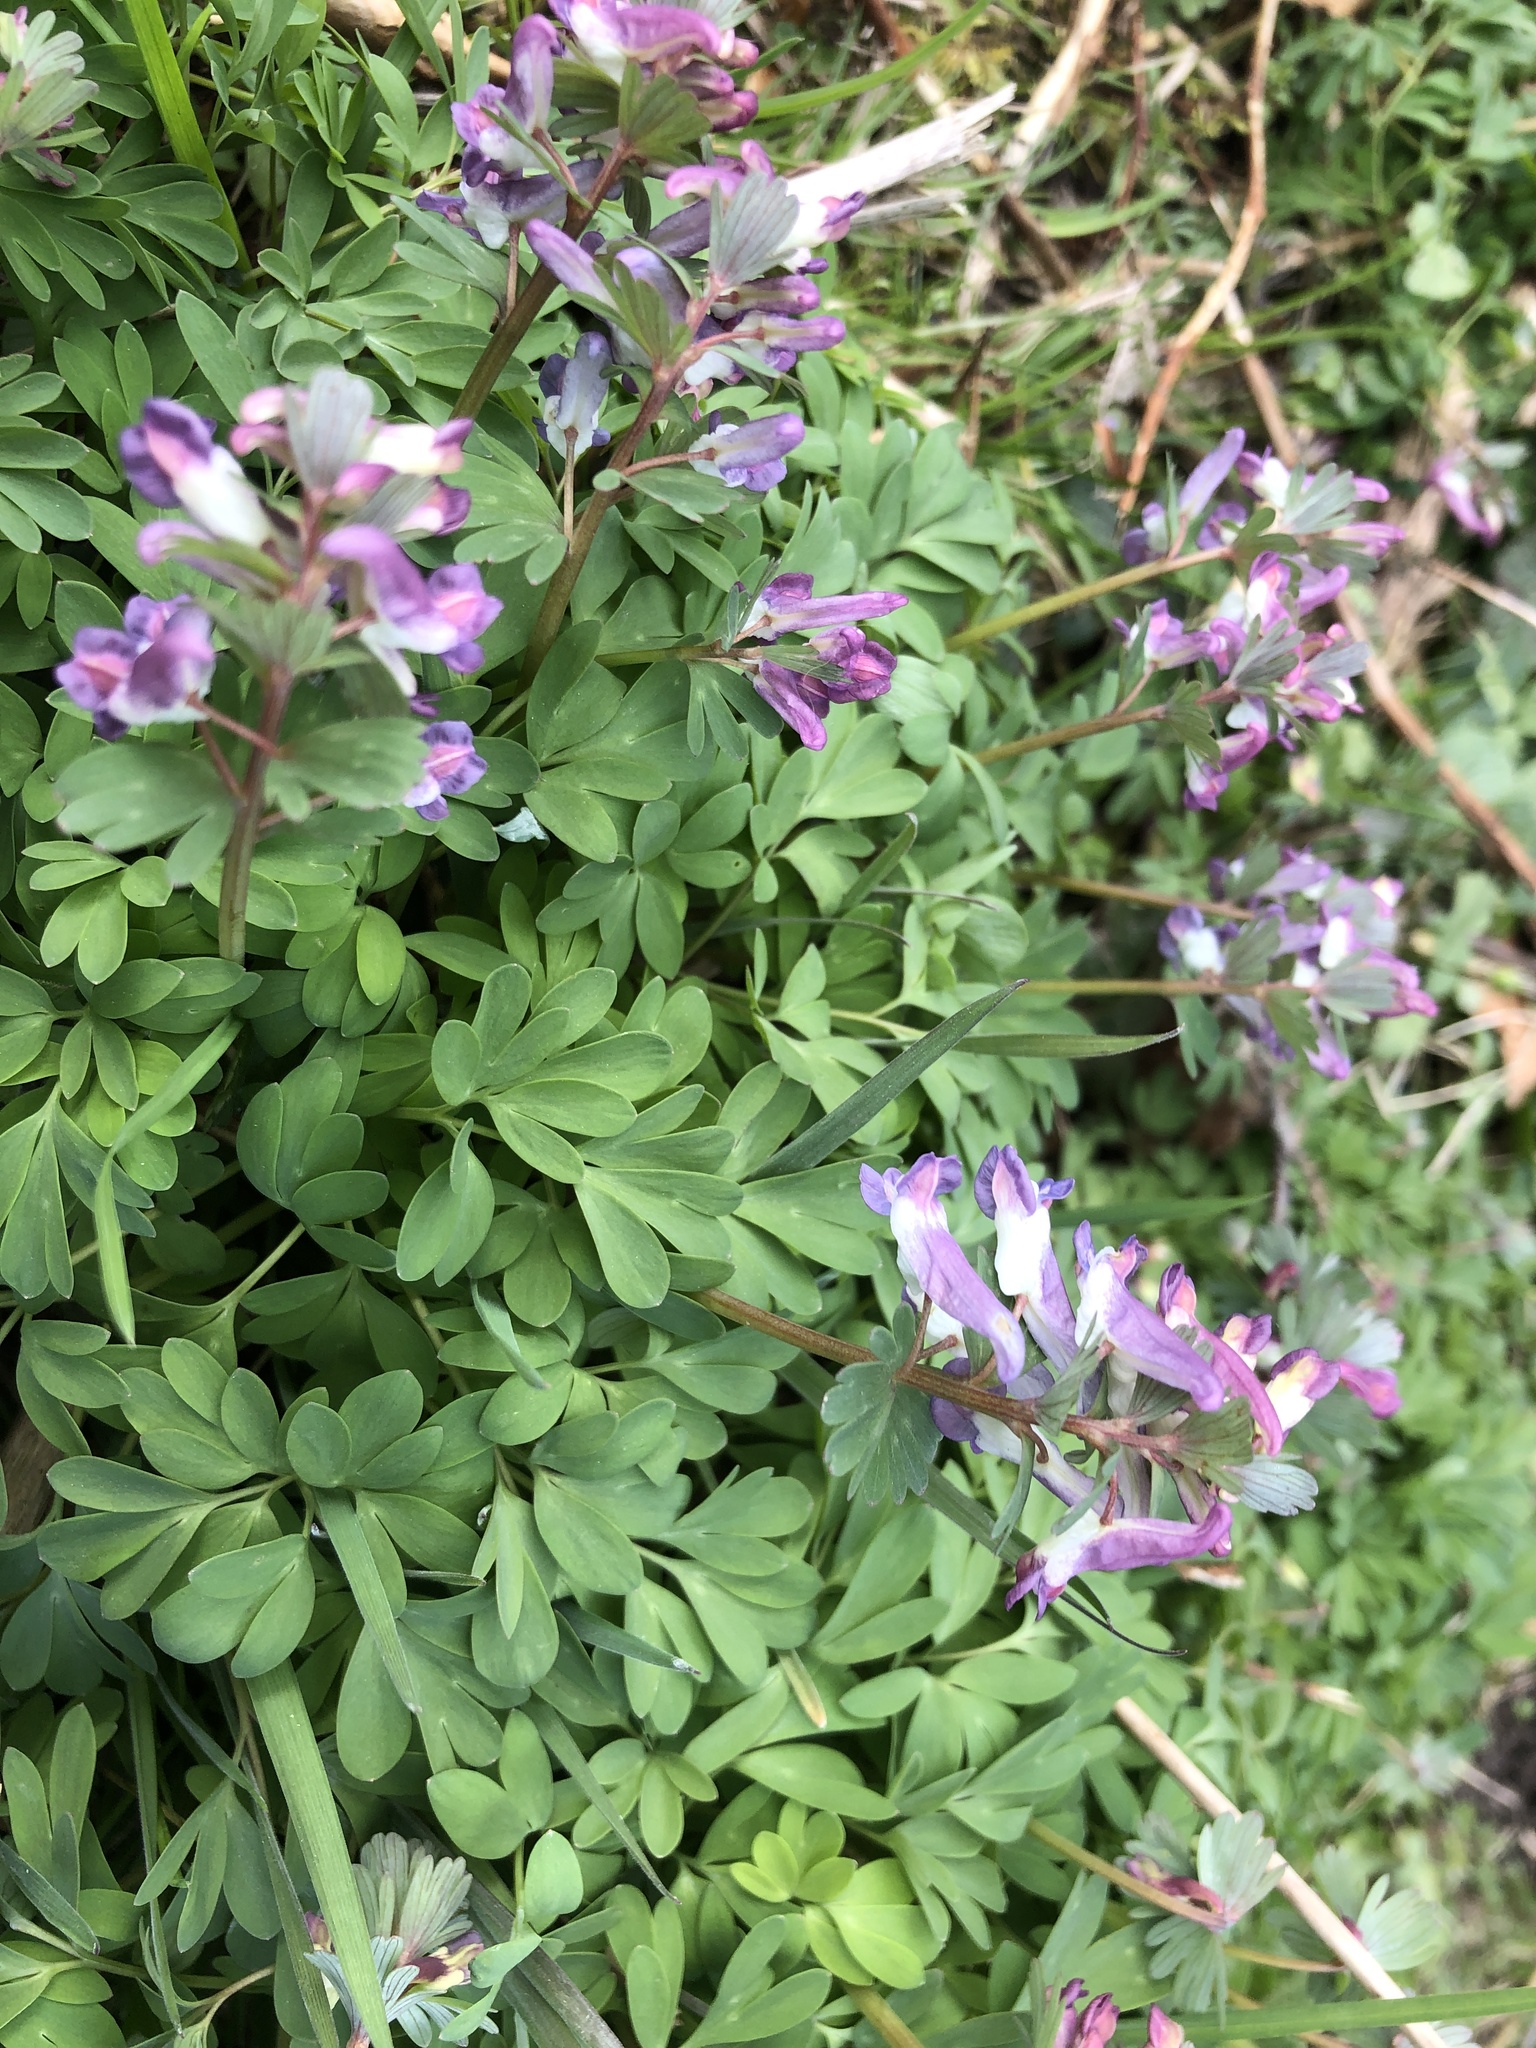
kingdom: Plantae
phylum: Tracheophyta
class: Magnoliopsida
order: Ranunculales
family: Papaveraceae
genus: Corydalis
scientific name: Corydalis solida
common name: Bird-in-a-bush
